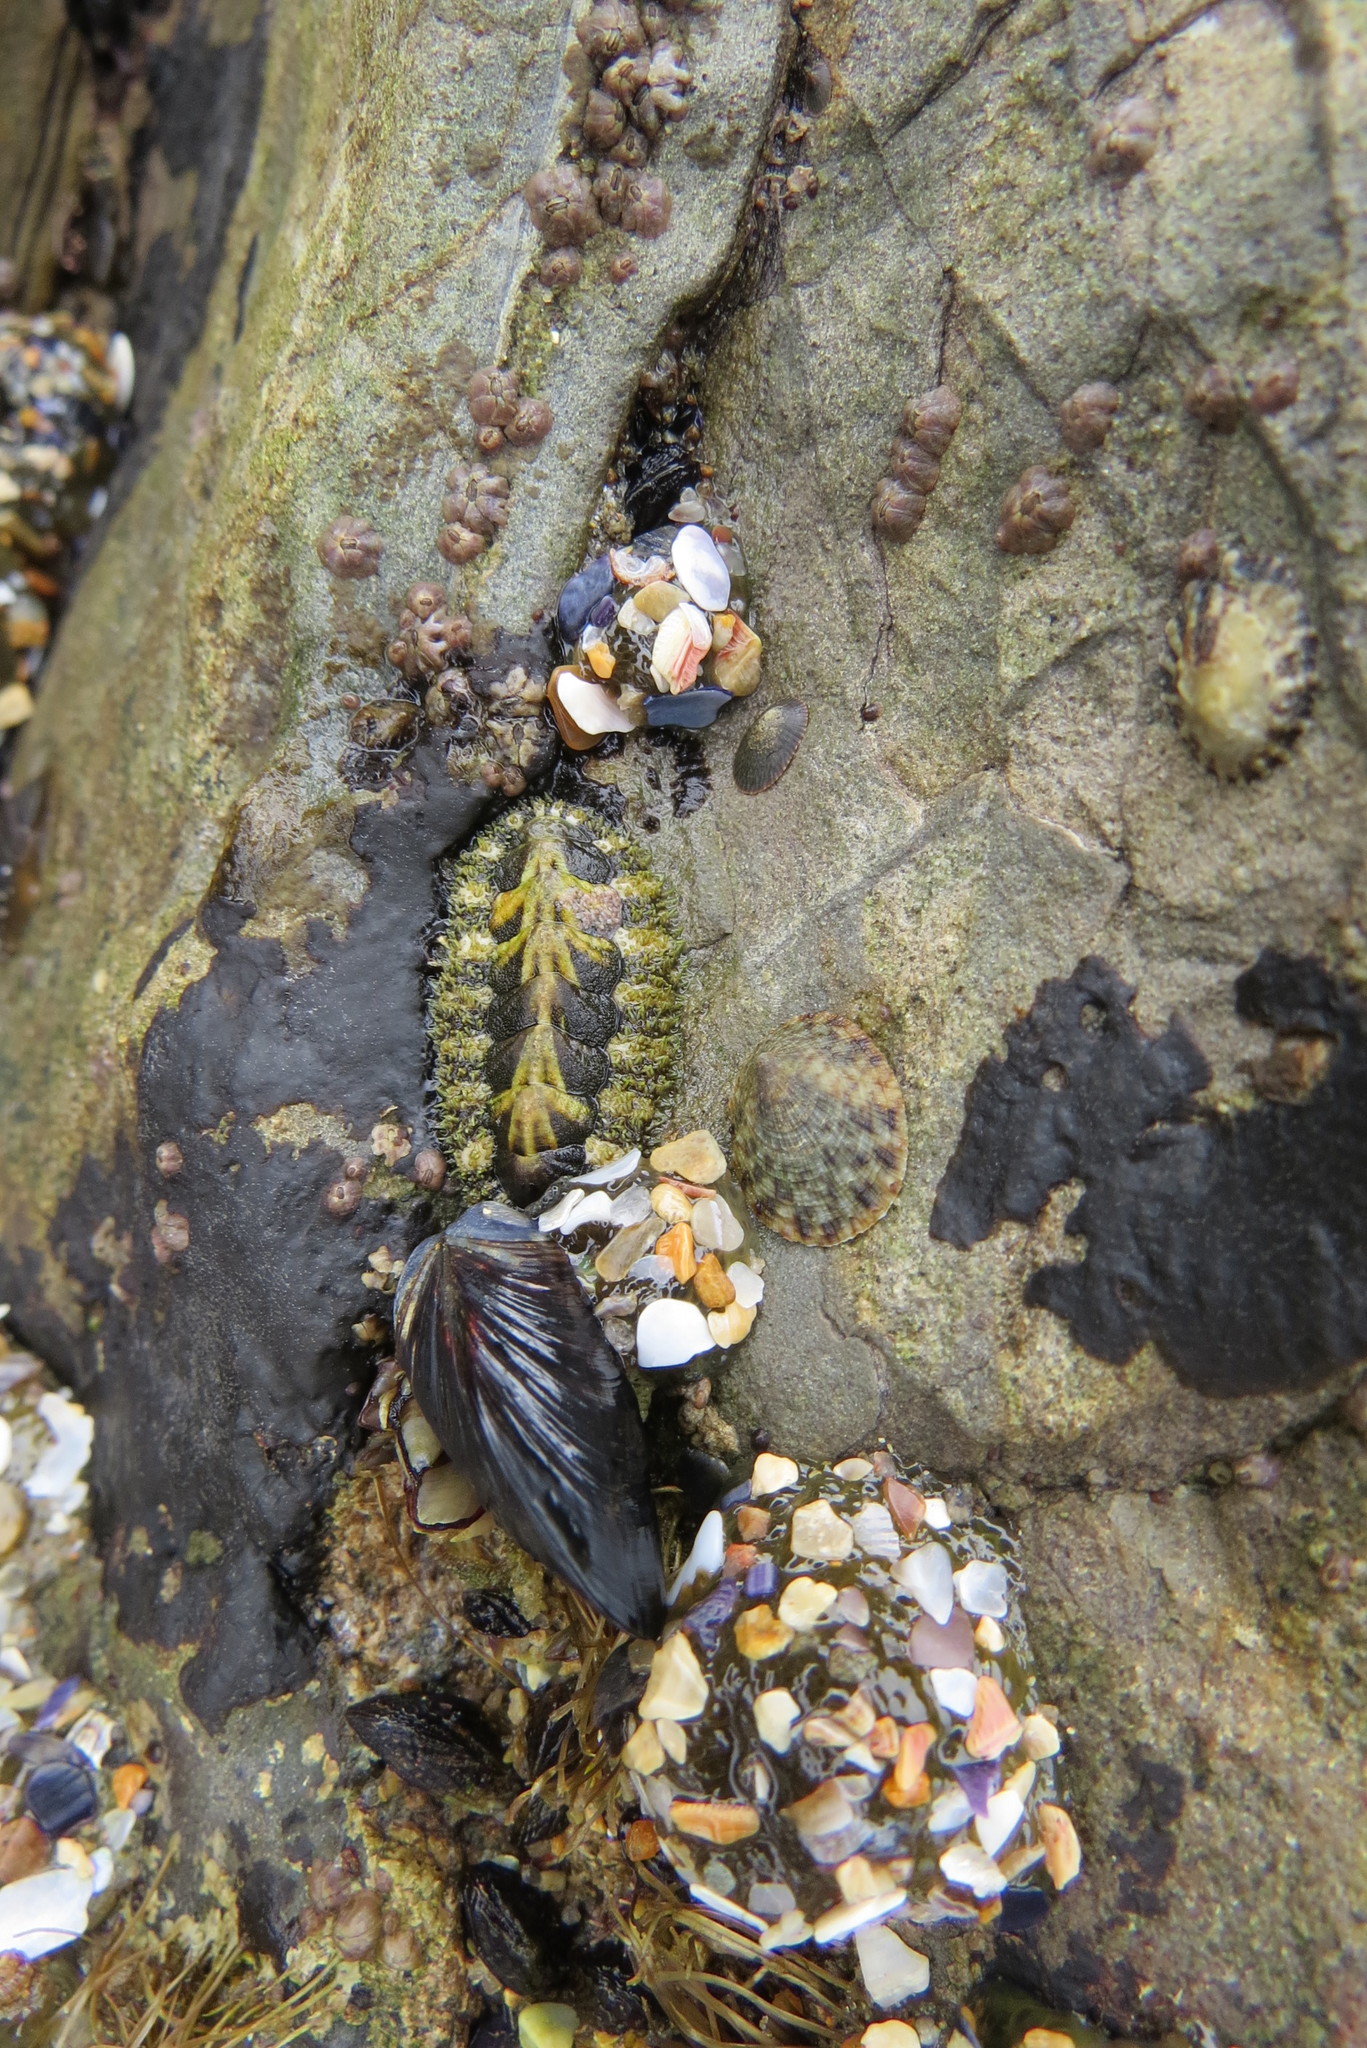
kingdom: Animalia
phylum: Mollusca
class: Polyplacophora
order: Chitonida
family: Tonicellidae
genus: Nuttallina
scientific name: Nuttallina californica
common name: California nuttall chiton
